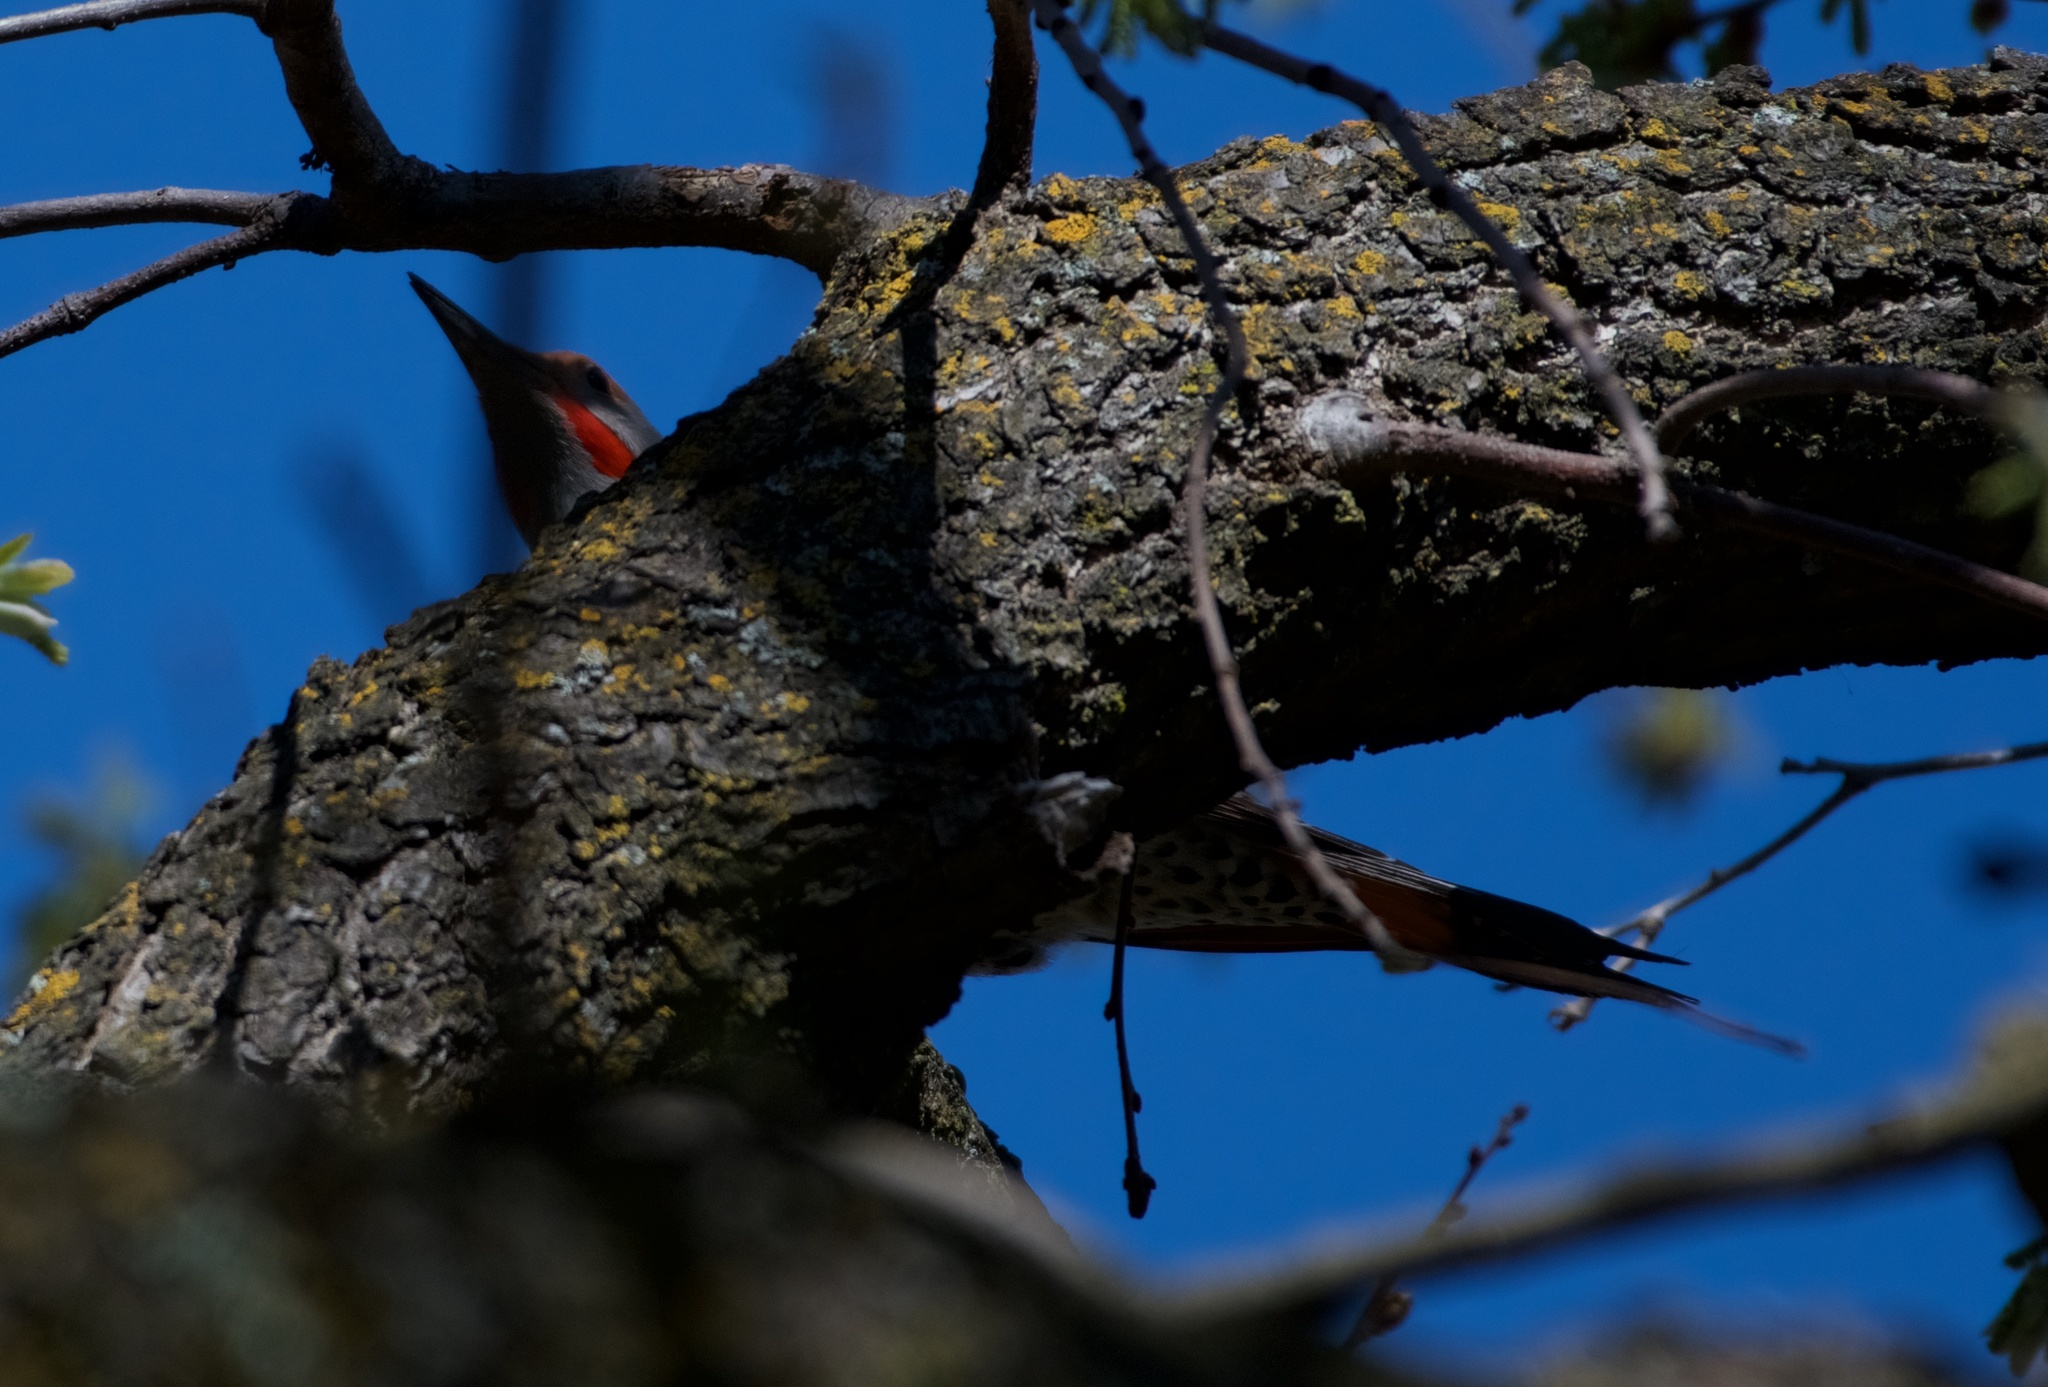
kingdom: Animalia
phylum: Chordata
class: Aves
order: Piciformes
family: Picidae
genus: Colaptes
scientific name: Colaptes auratus
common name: Northern flicker
